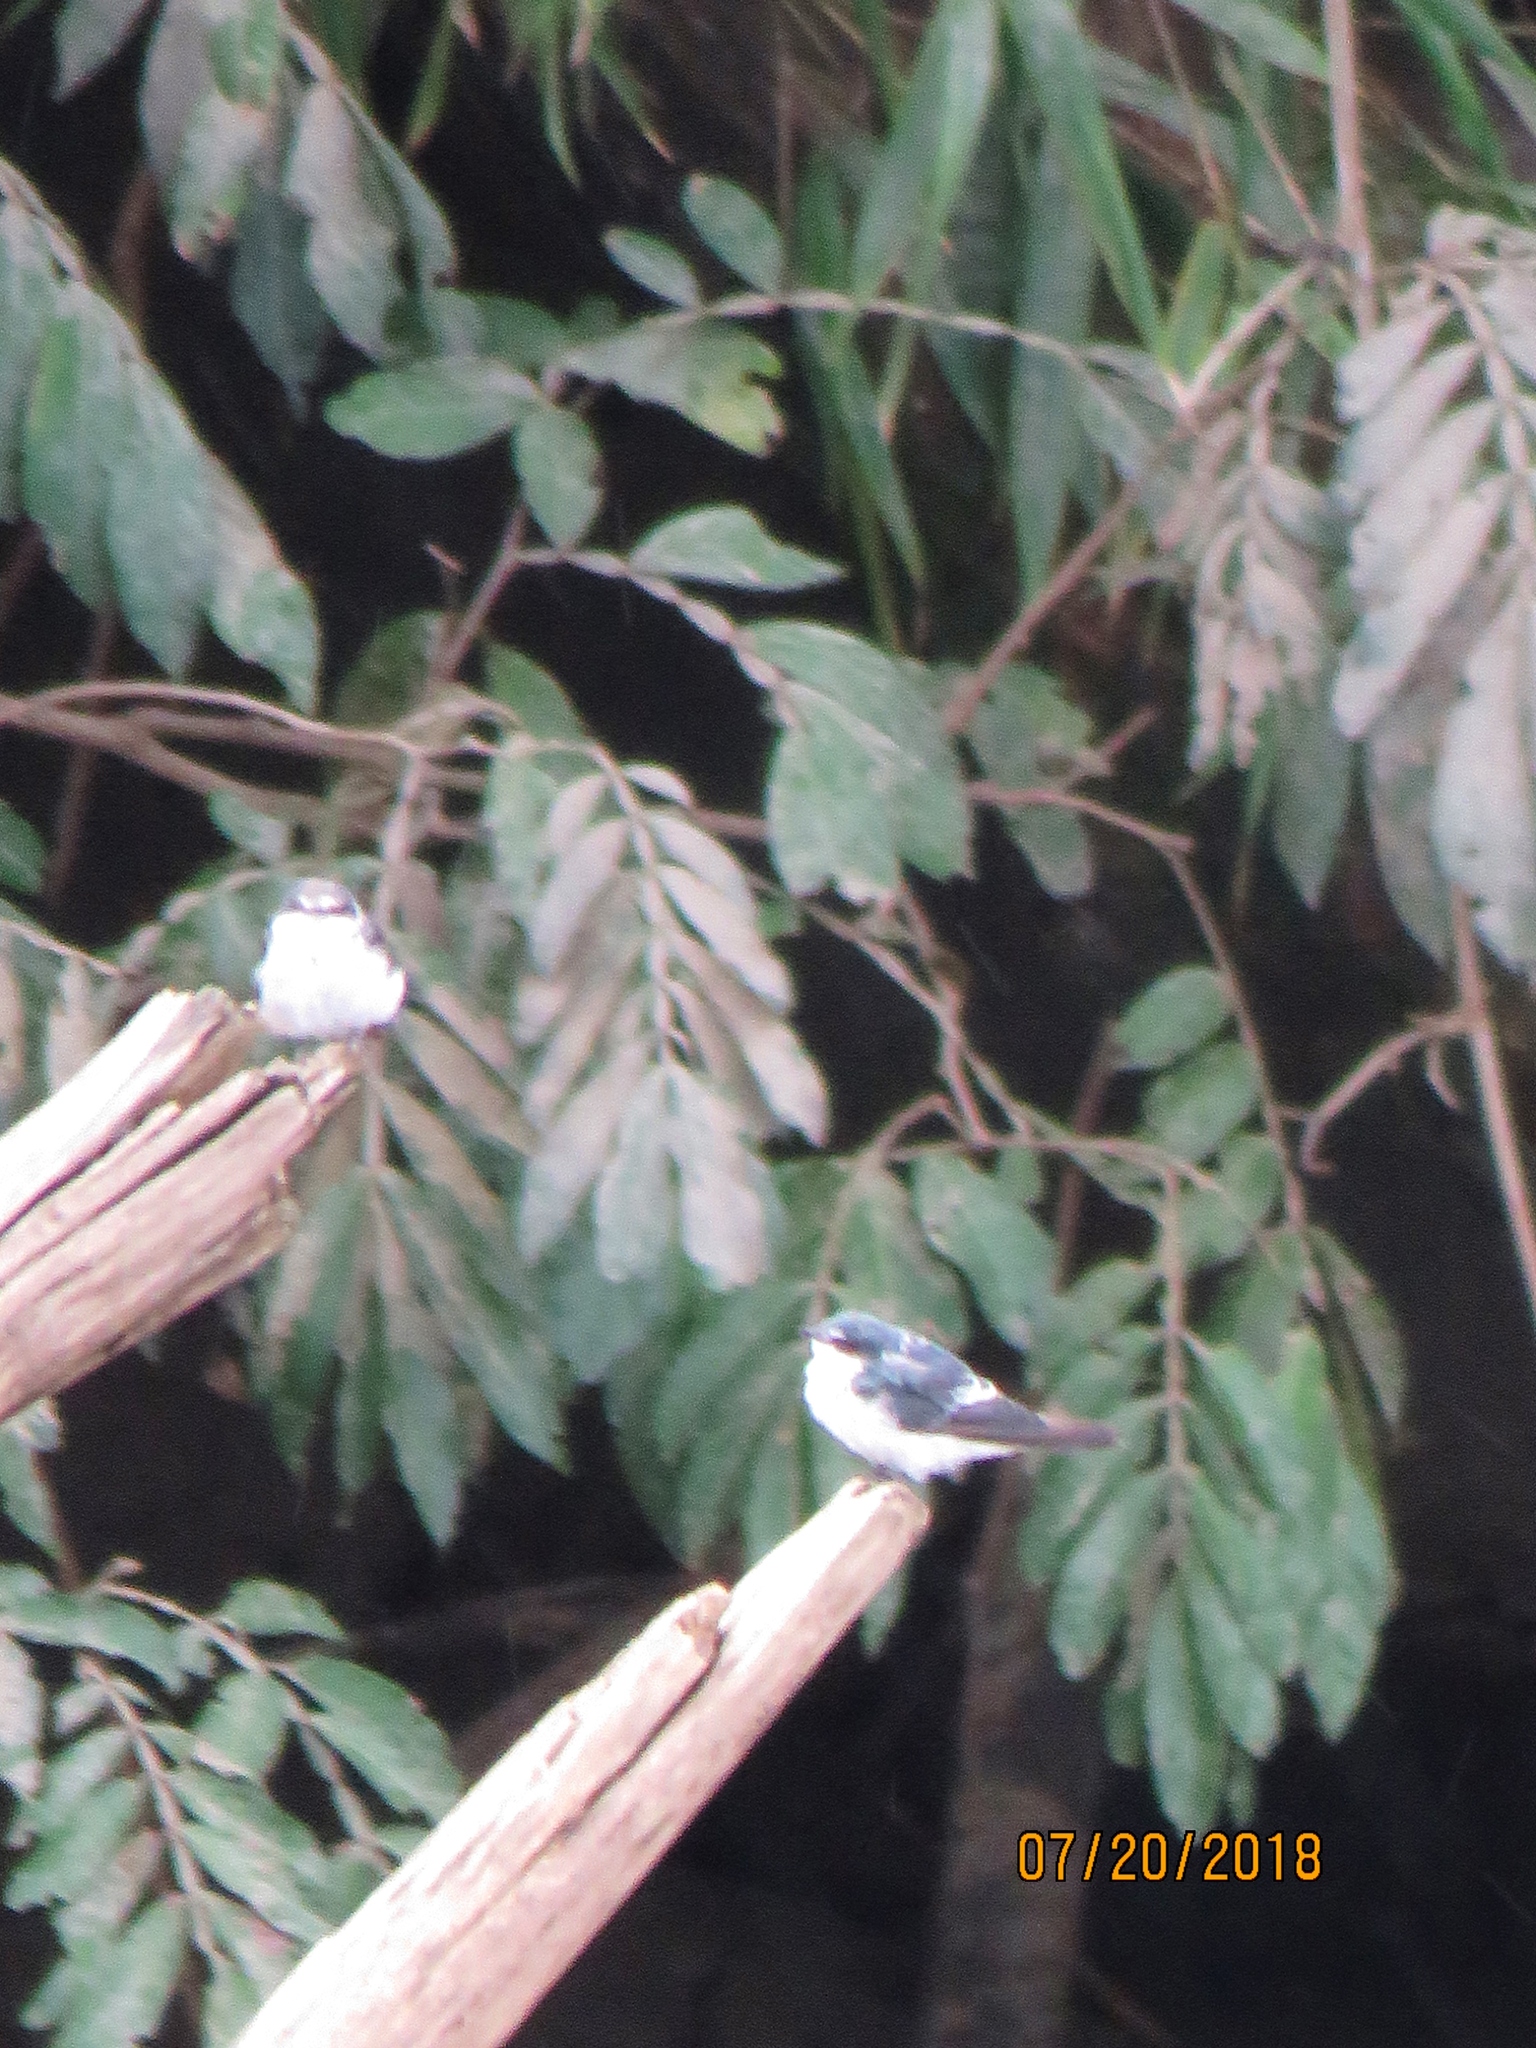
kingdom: Animalia
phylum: Chordata
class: Aves
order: Passeriformes
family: Hirundinidae
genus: Tachycineta
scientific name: Tachycineta albilinea
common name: Mangrove swallow
